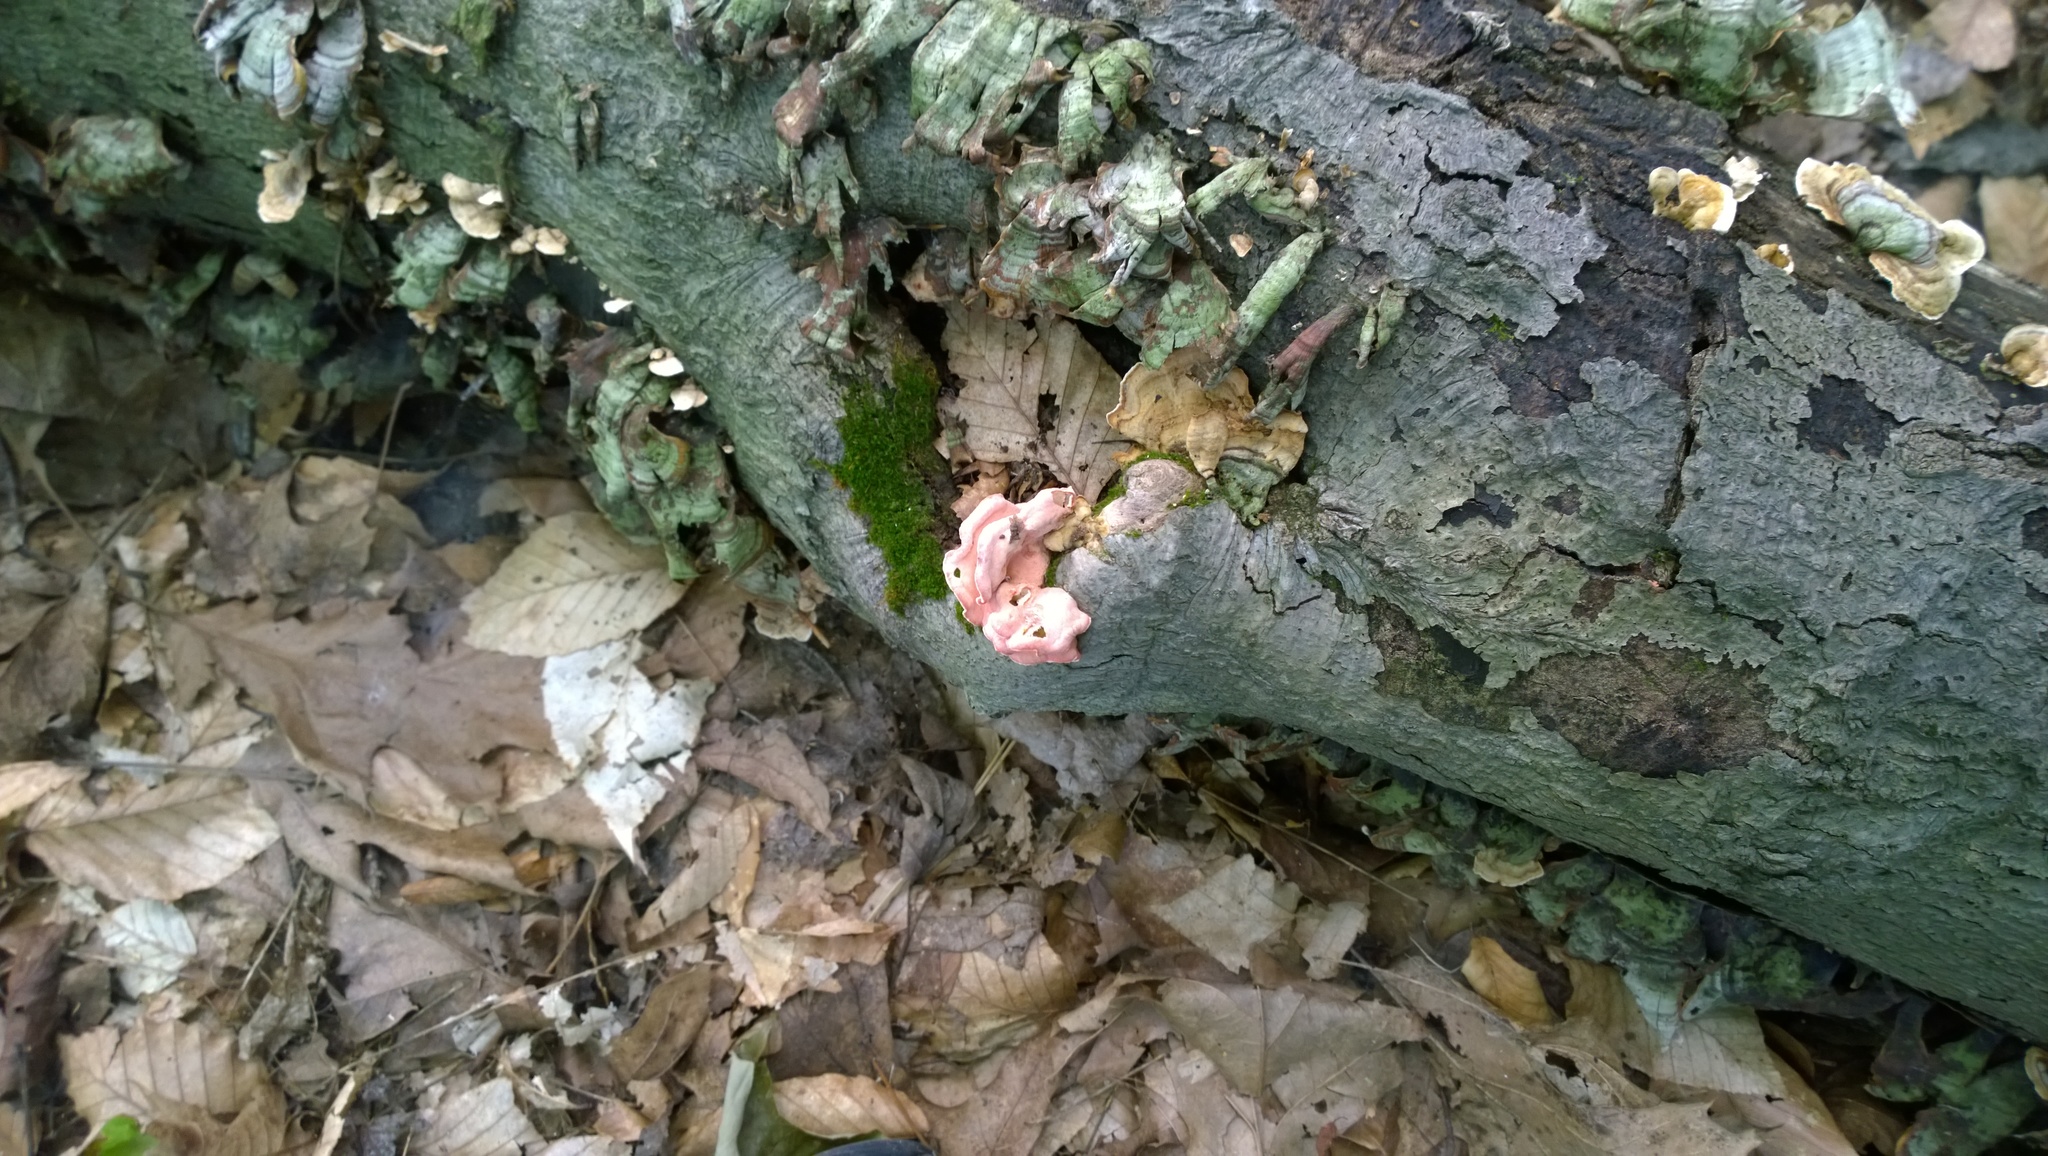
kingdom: Fungi
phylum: Basidiomycota
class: Agaricomycetes
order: Polyporales
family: Irpicaceae
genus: Byssomerulius
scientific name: Byssomerulius incarnatus
